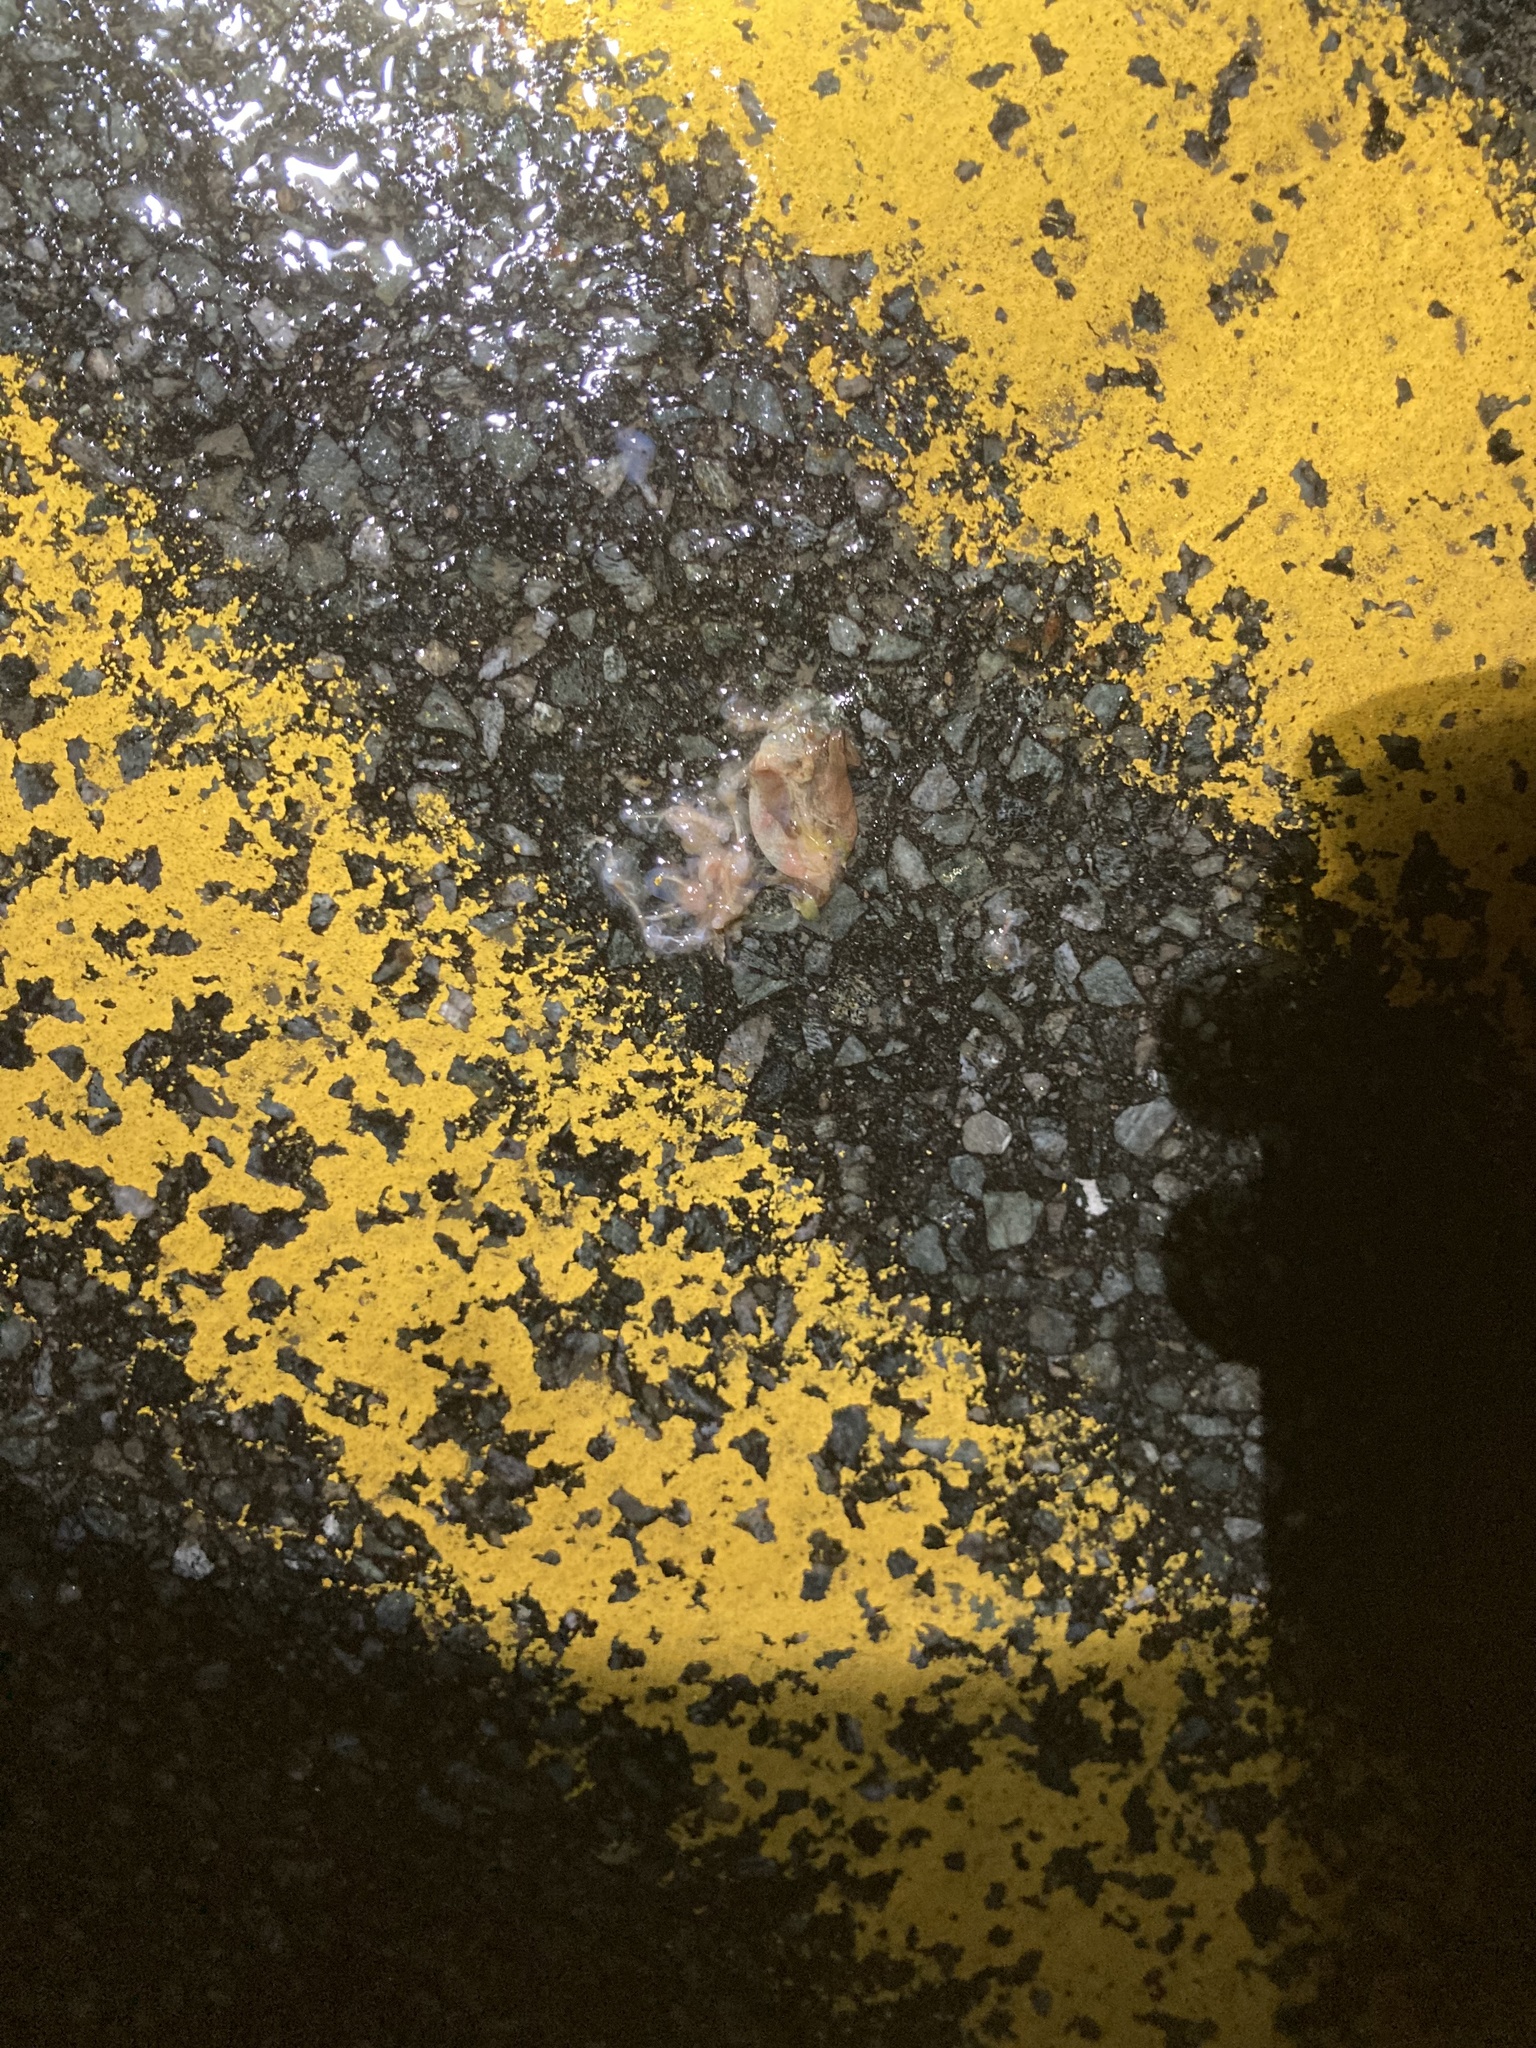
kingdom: Animalia
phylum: Chordata
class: Amphibia
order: Anura
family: Hylidae
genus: Pseudacris
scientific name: Pseudacris crucifer
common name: Spring peeper
